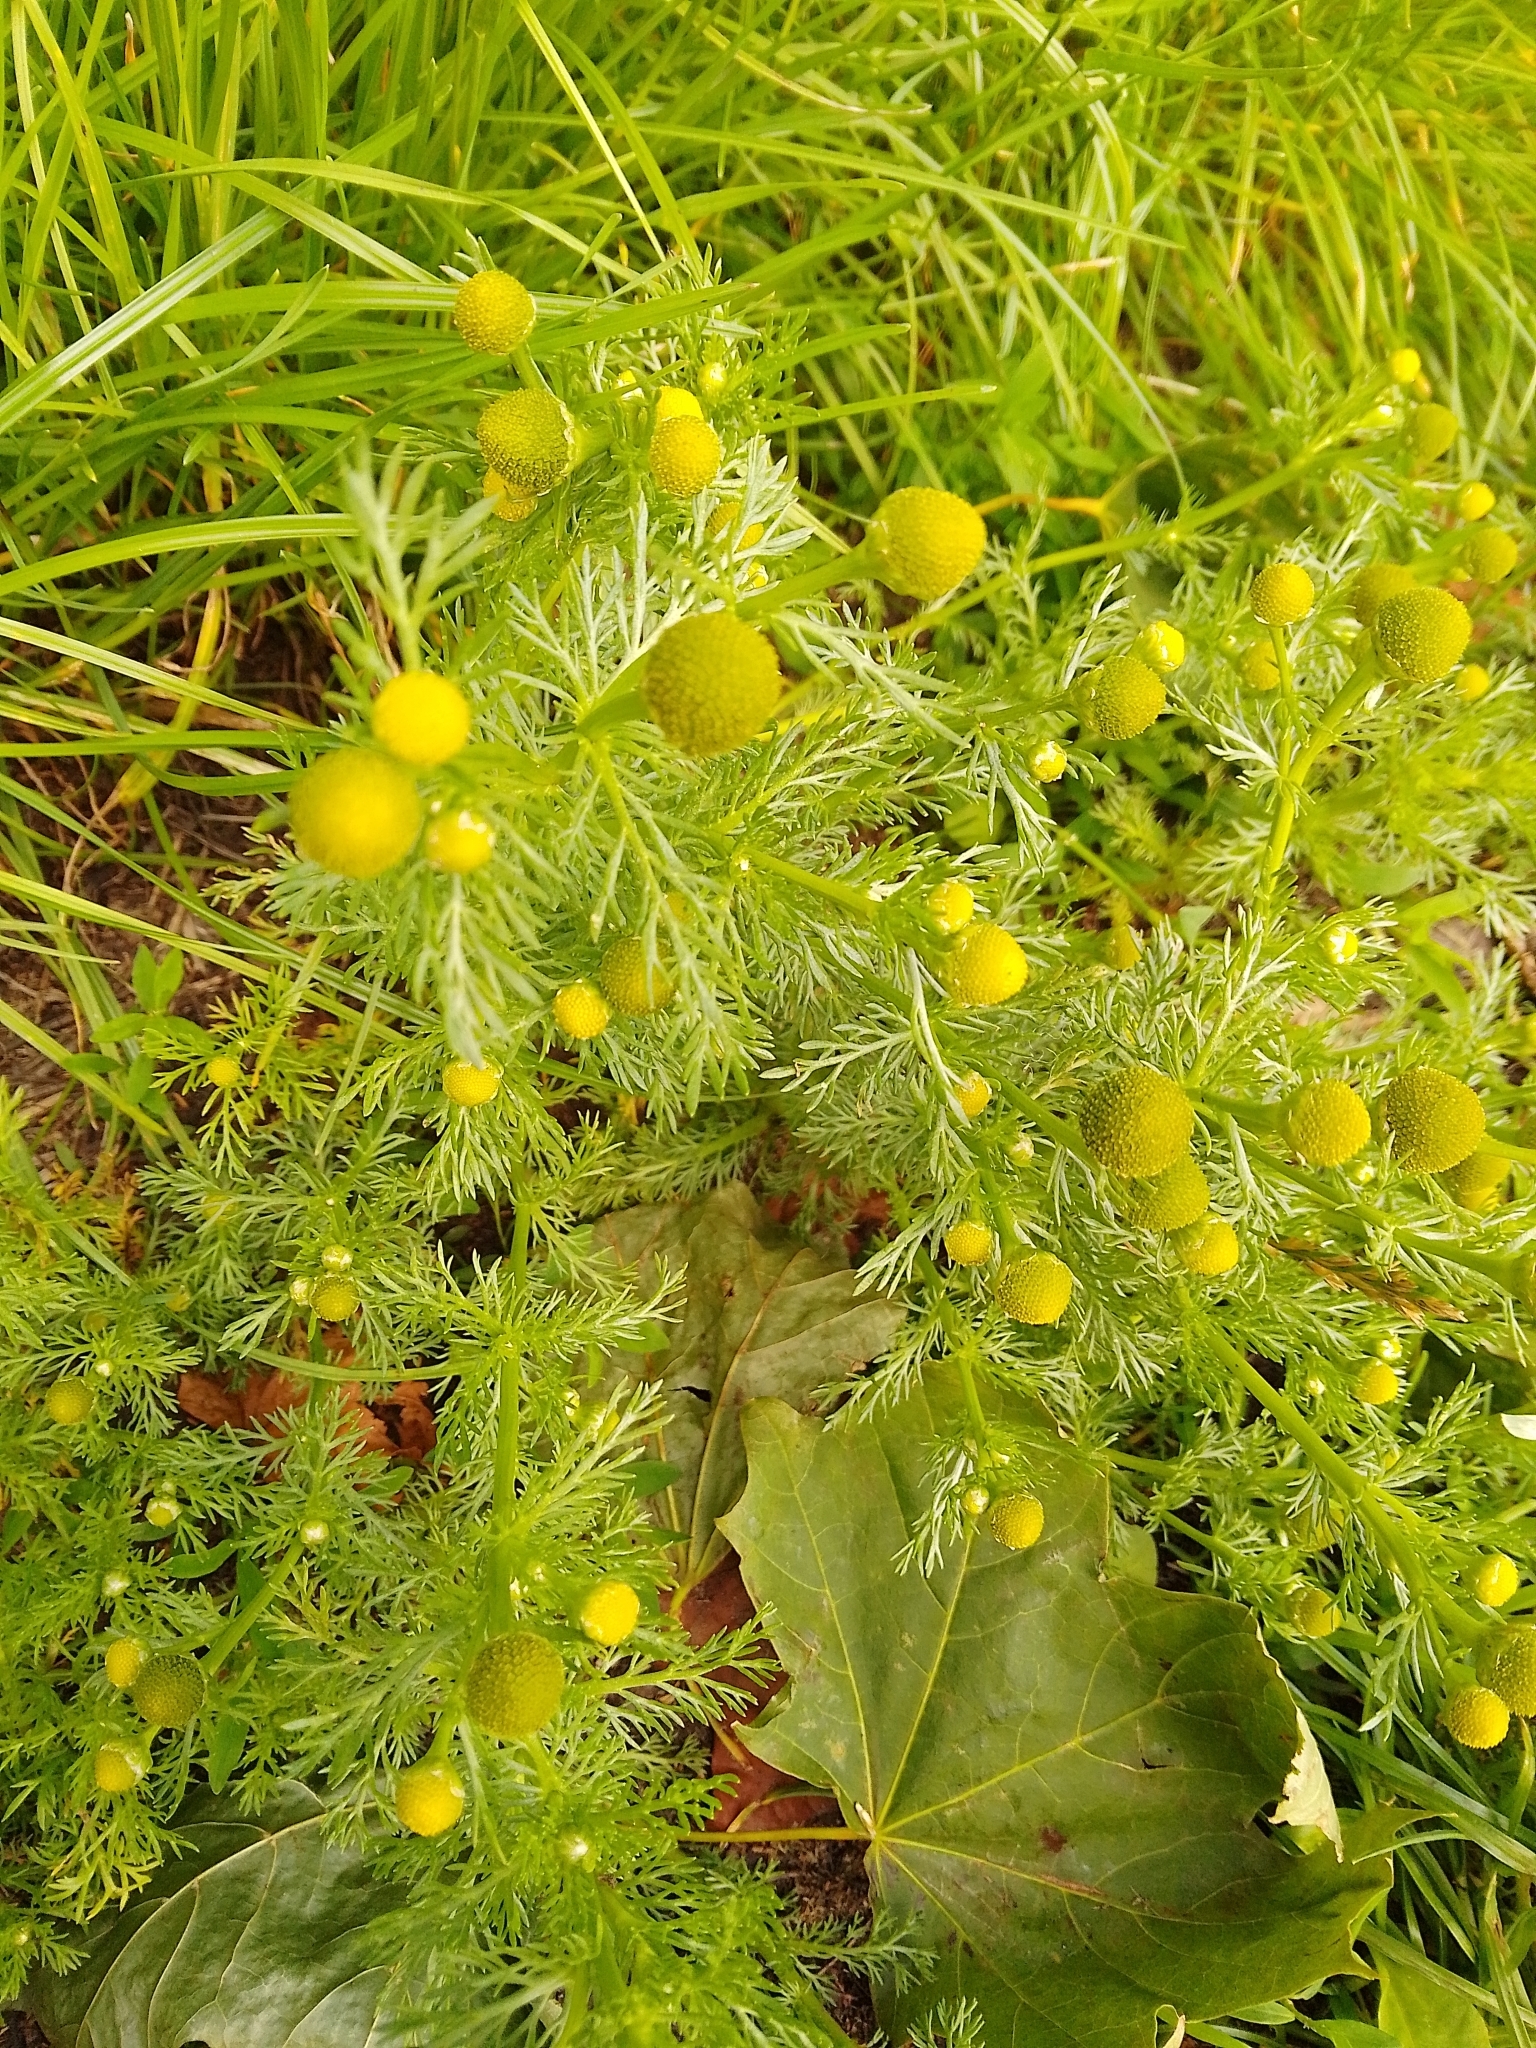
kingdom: Plantae
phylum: Tracheophyta
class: Magnoliopsida
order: Asterales
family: Asteraceae
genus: Matricaria
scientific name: Matricaria discoidea
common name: Disc mayweed
